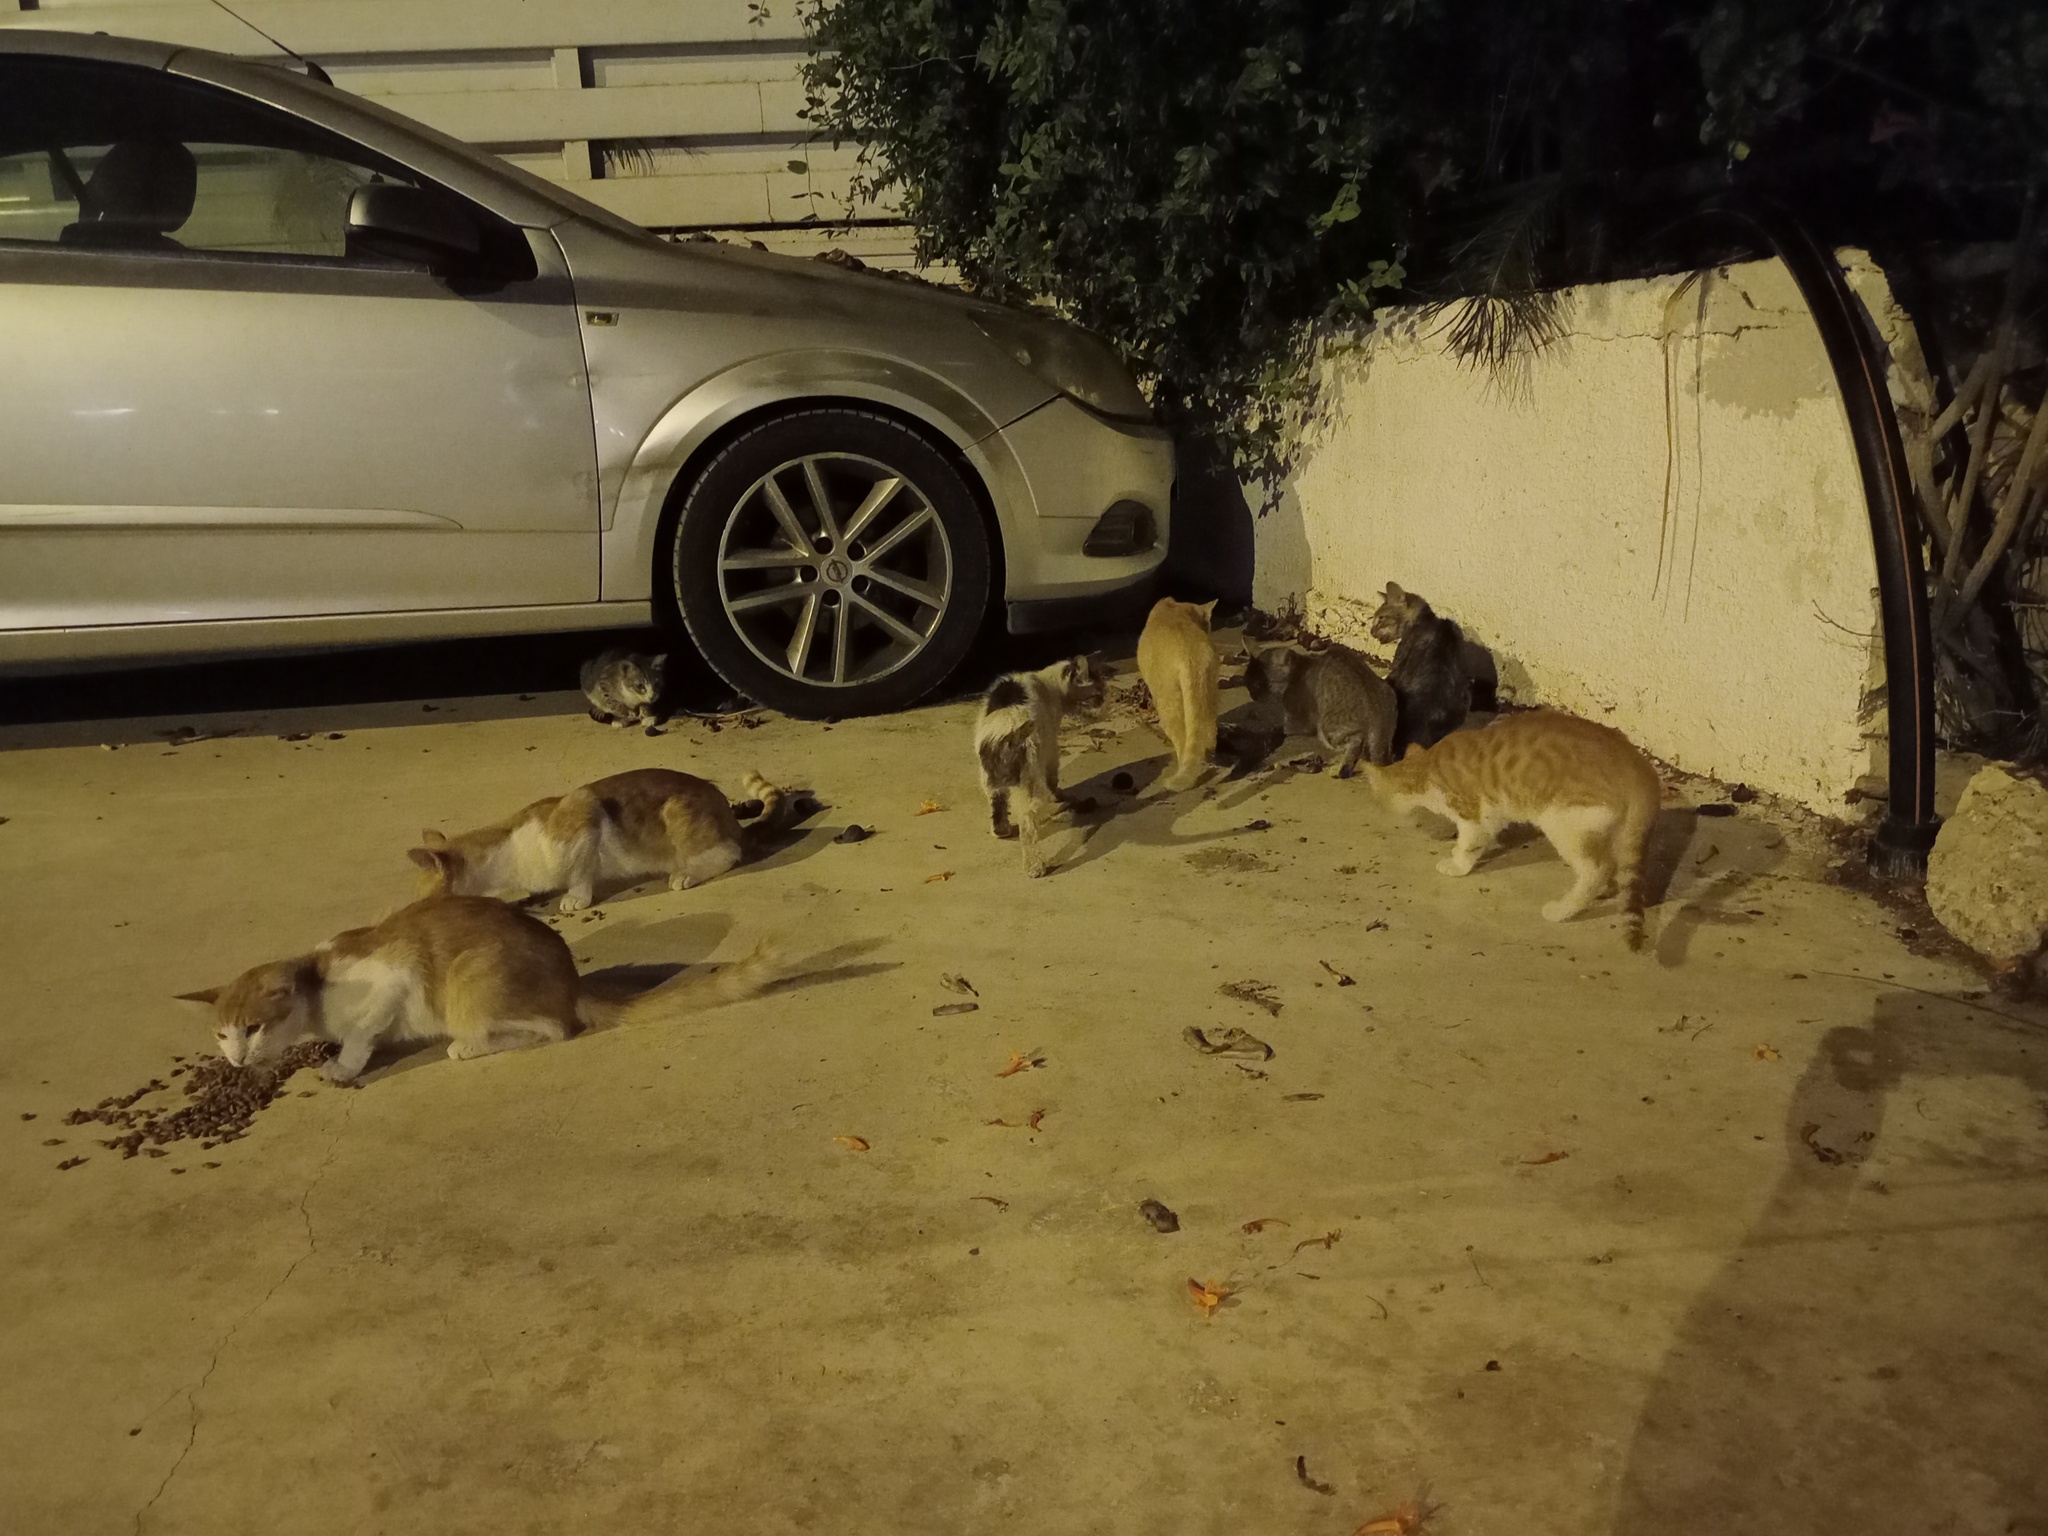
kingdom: Animalia
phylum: Chordata
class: Mammalia
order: Carnivora
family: Felidae
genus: Felis
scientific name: Felis catus
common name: Domestic cat
